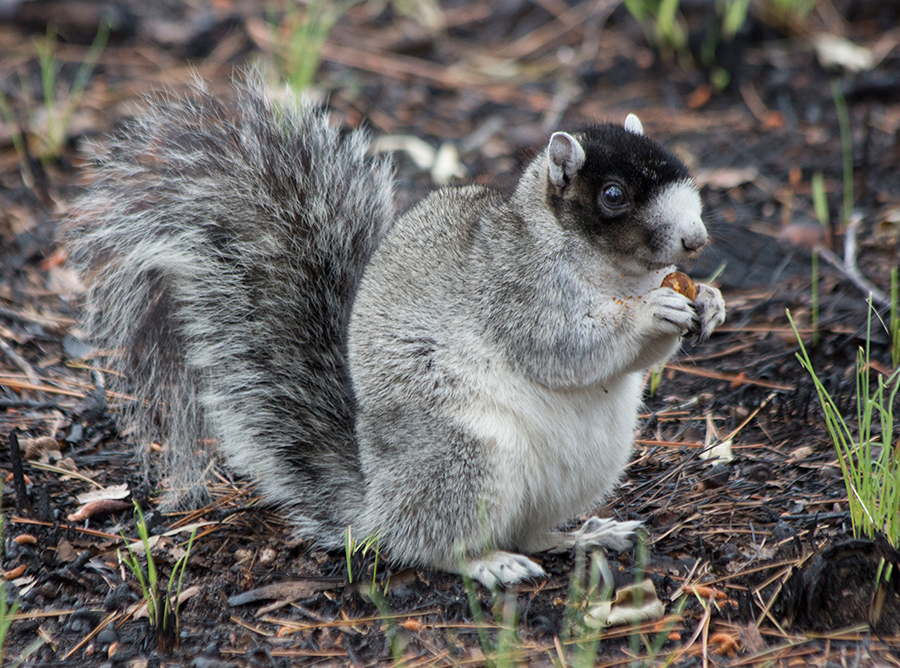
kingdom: Animalia
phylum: Chordata
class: Mammalia
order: Rodentia
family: Sciuridae
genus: Sciurus
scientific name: Sciurus niger
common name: Fox squirrel
